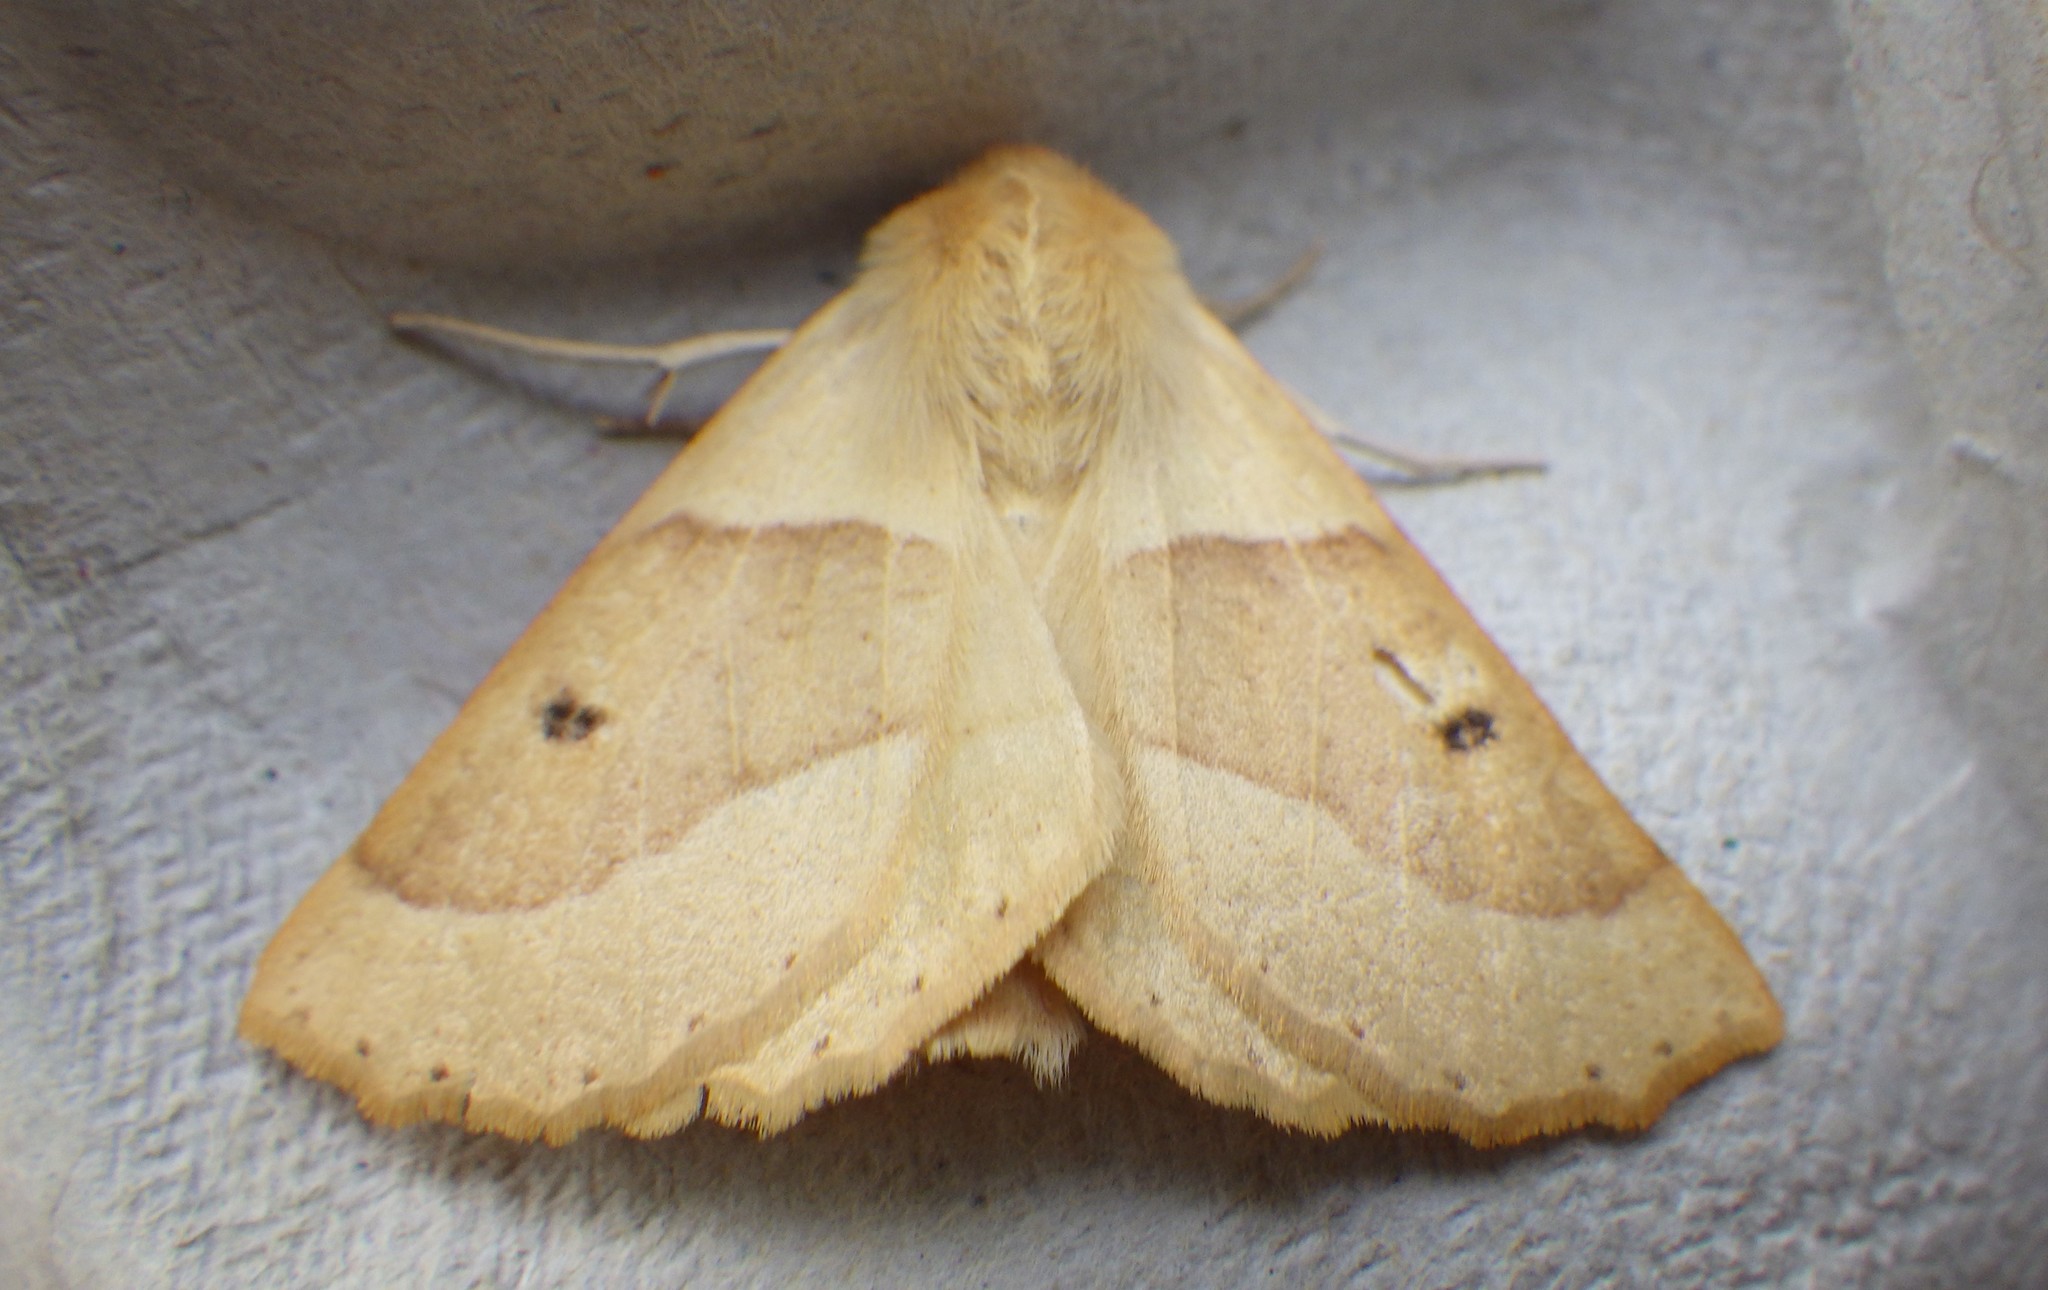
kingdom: Animalia
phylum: Arthropoda
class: Insecta
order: Lepidoptera
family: Geometridae
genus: Crocallis
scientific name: Crocallis elinguaria
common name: Scalloped oak
